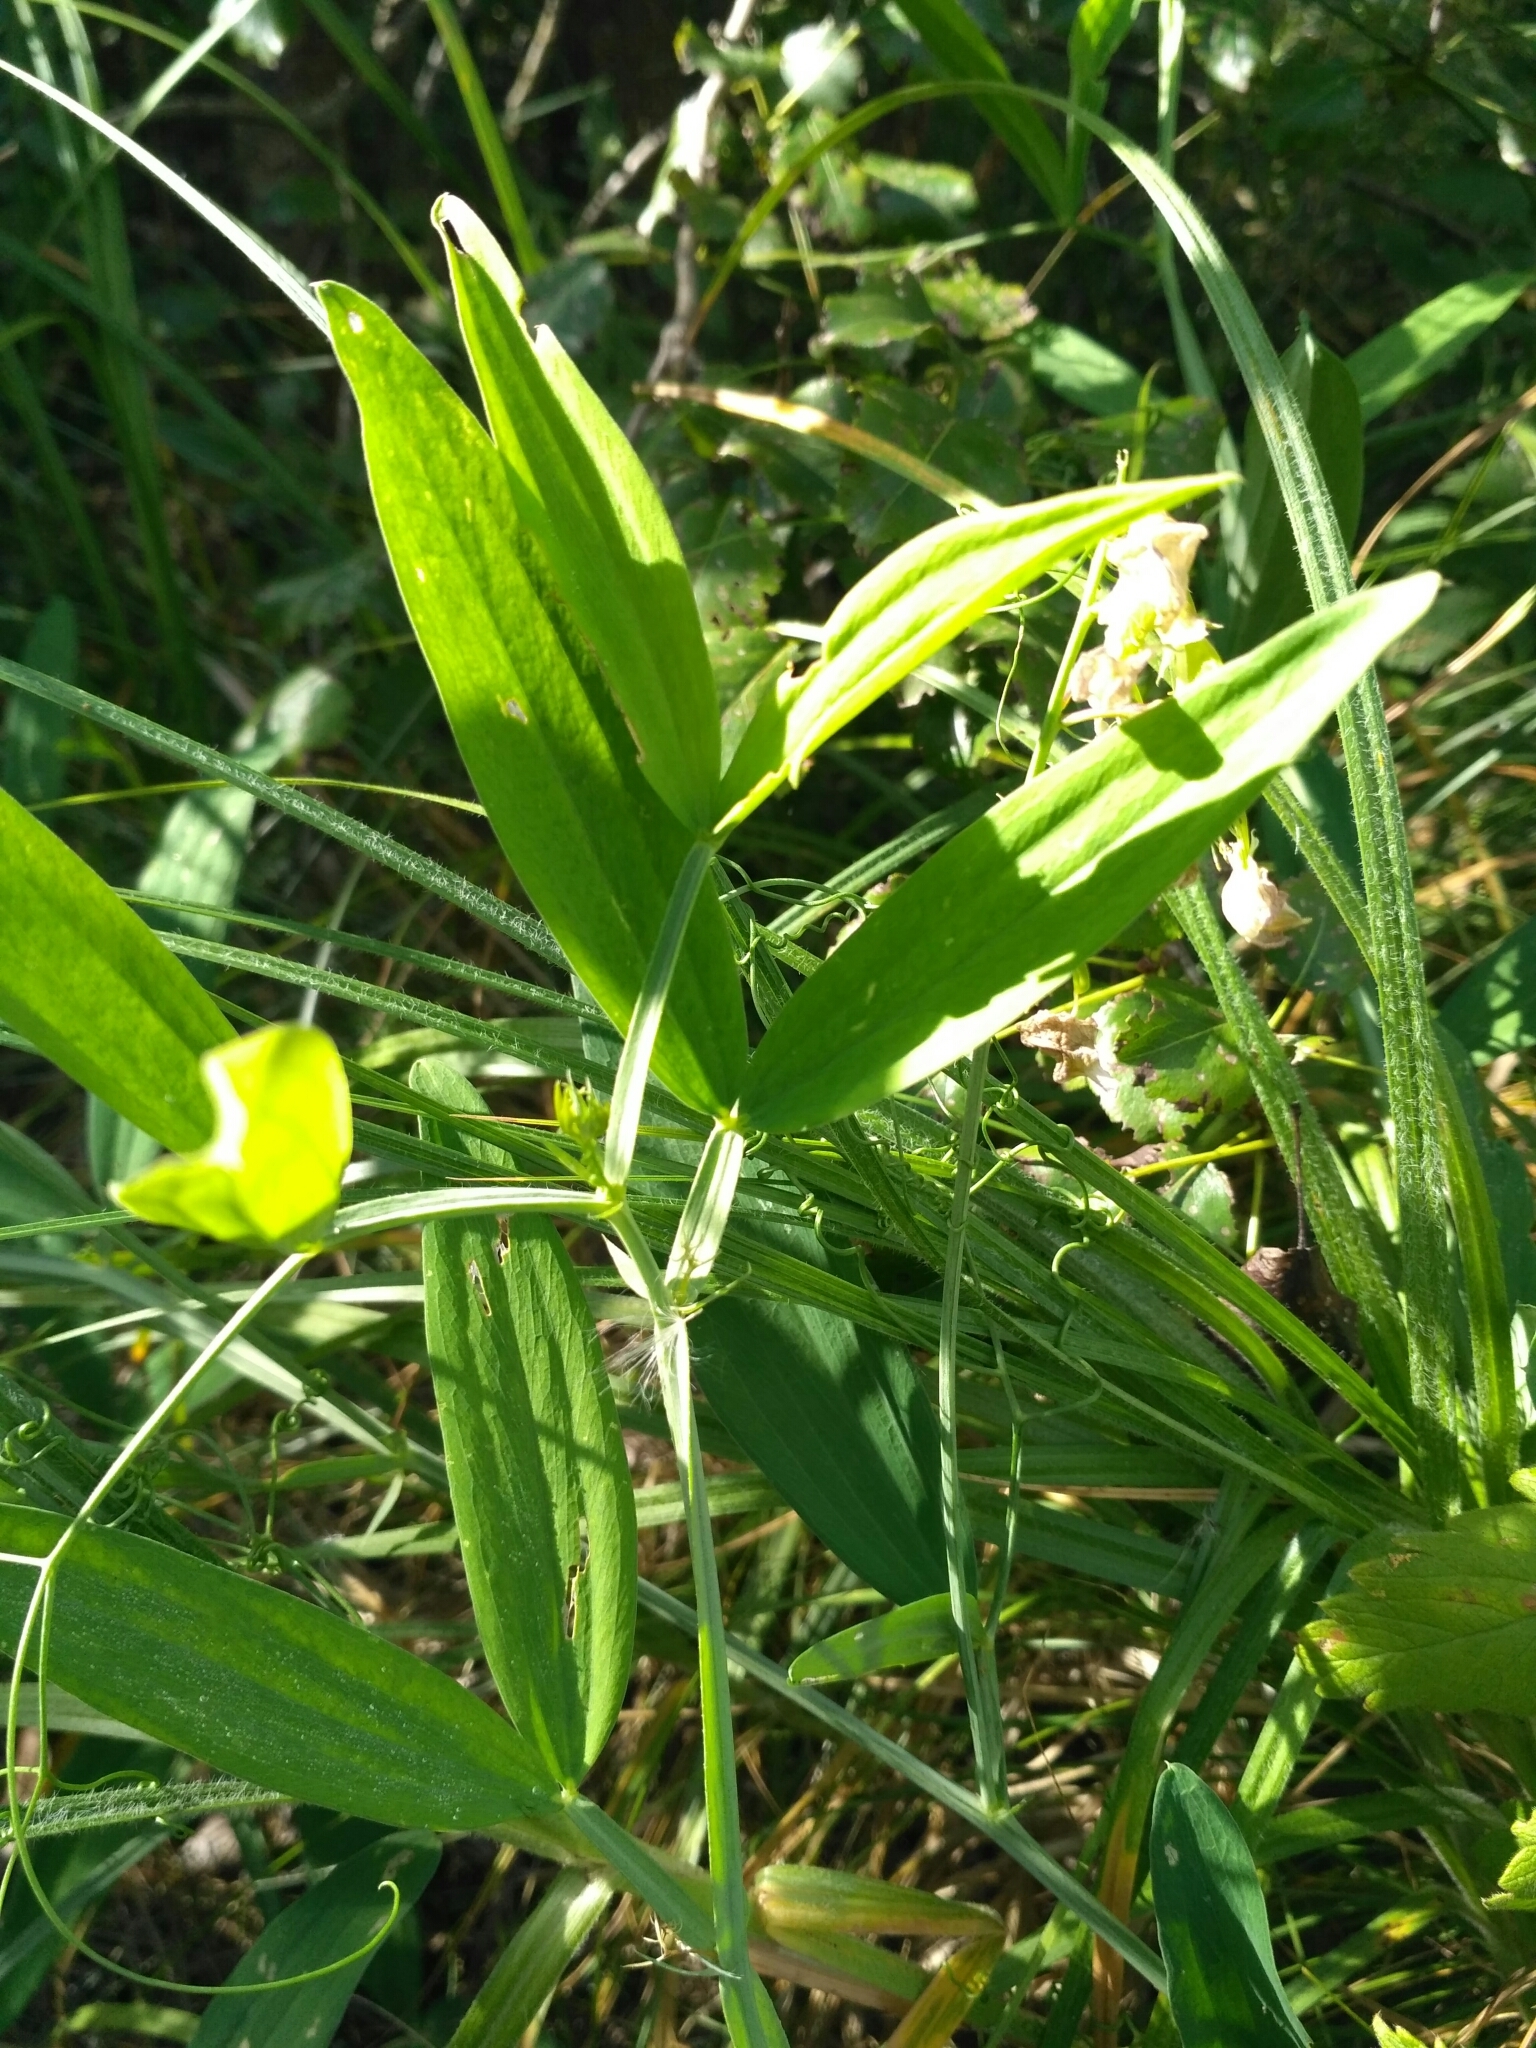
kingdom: Plantae
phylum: Tracheophyta
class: Magnoliopsida
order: Fabales
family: Fabaceae
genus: Lathyrus
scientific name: Lathyrus sylvestris
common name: Flat pea
